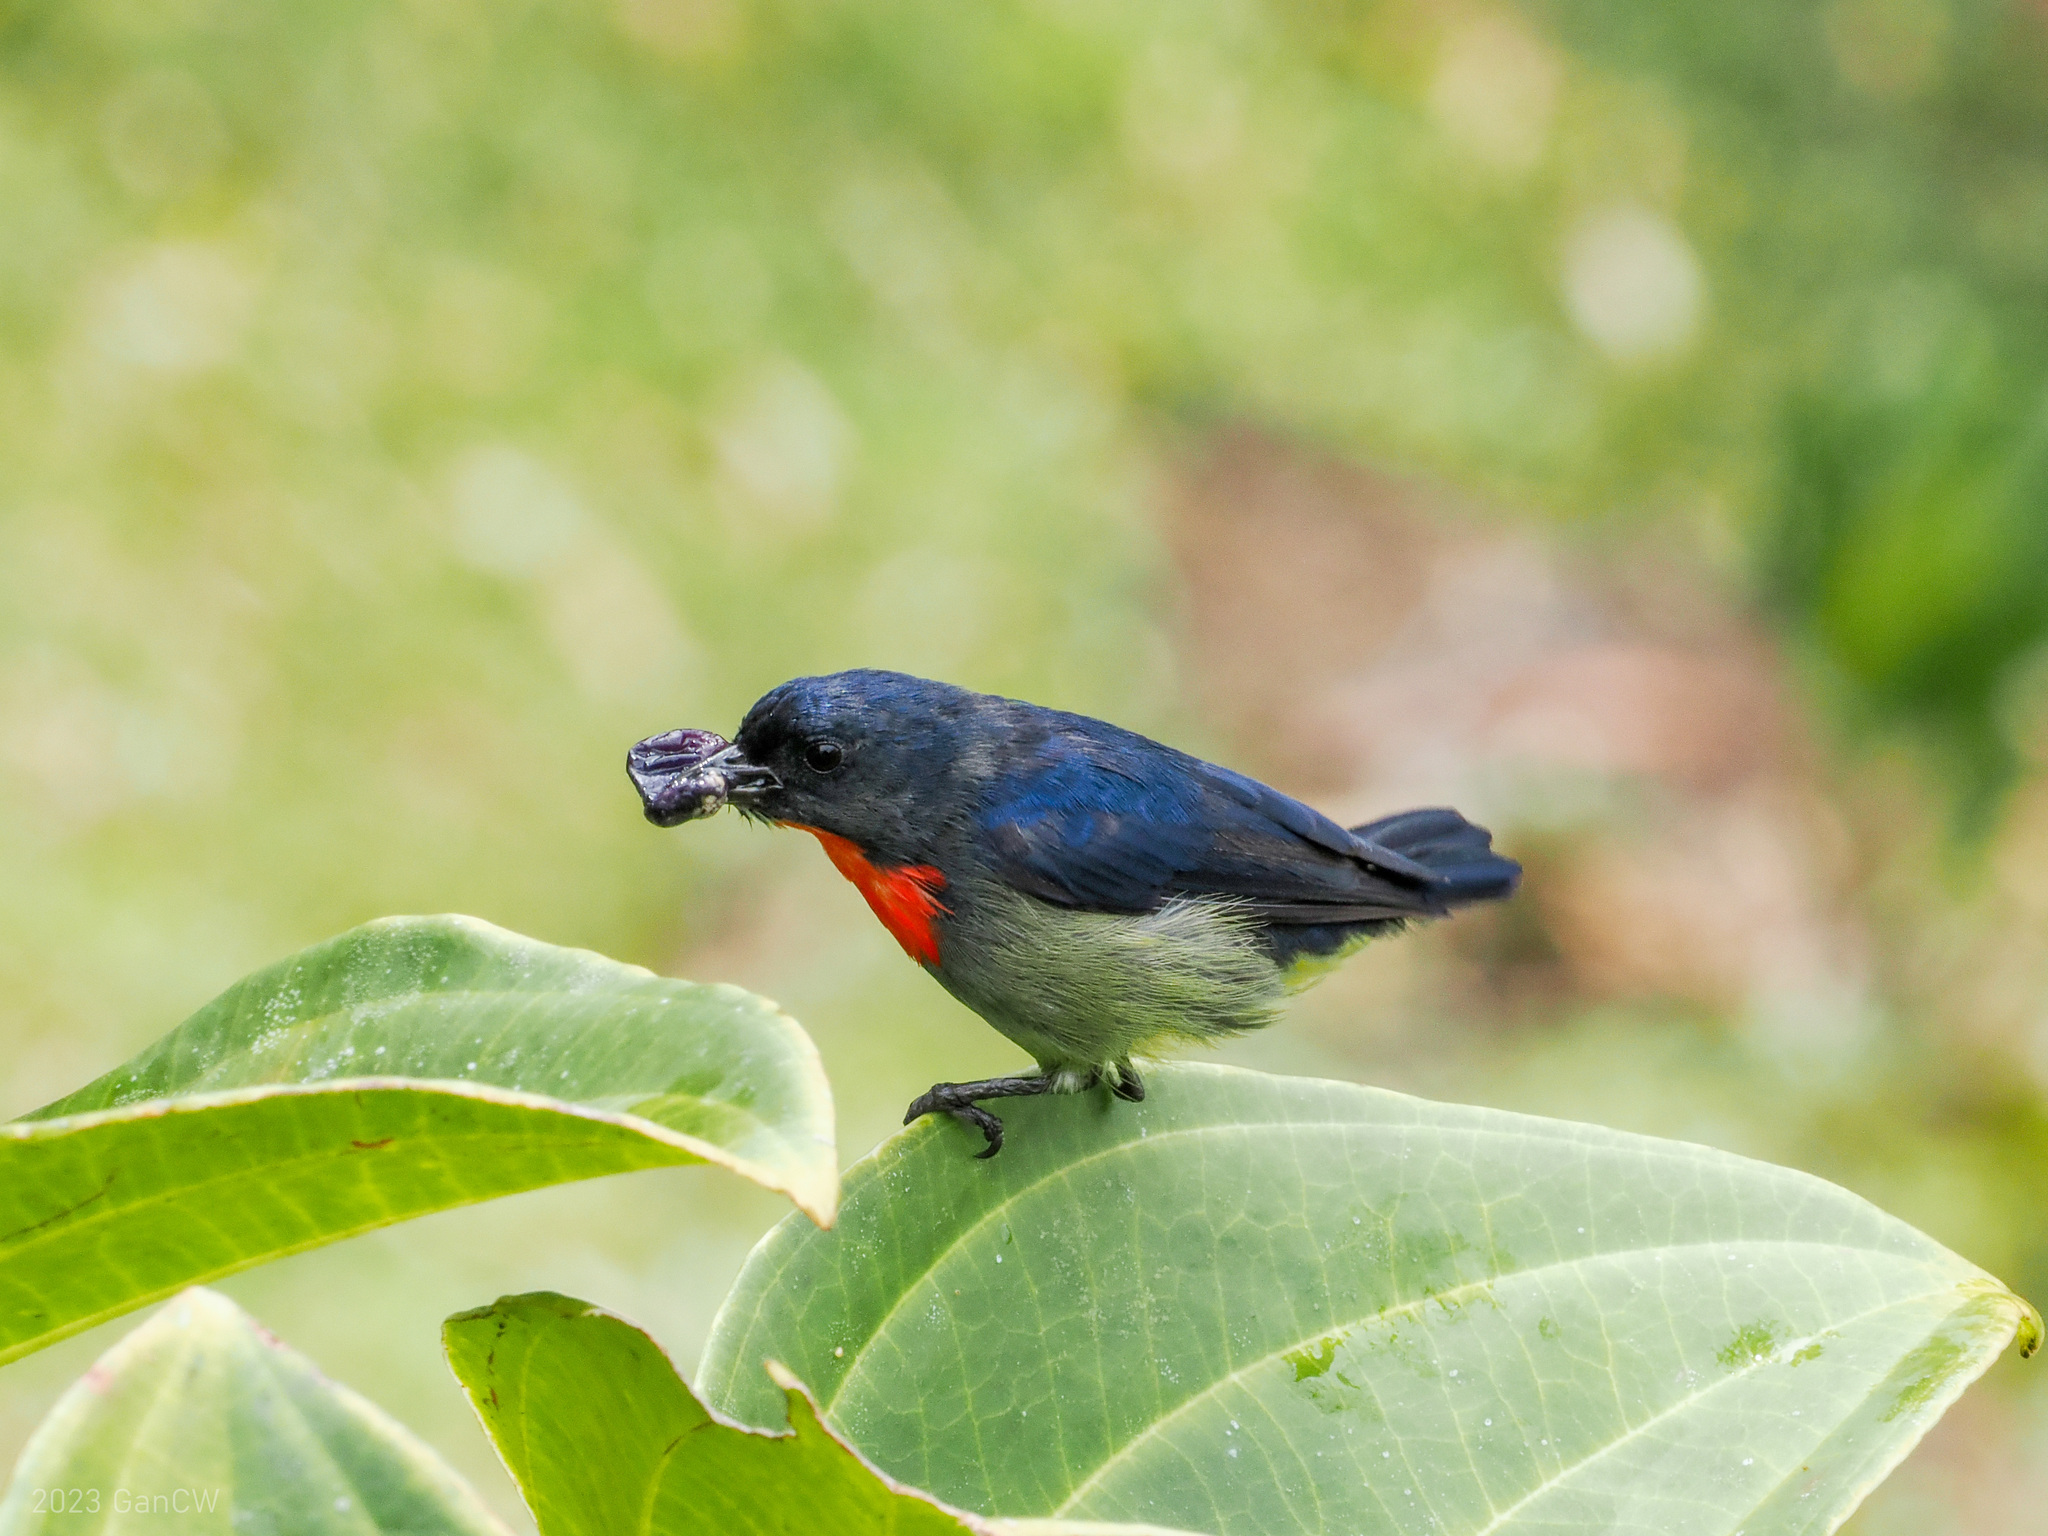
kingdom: Animalia
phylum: Chordata
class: Aves
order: Passeriformes
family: Dicaeidae
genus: Dicaeum
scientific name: Dicaeum monticolum
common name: Black-sided flowerpecker
